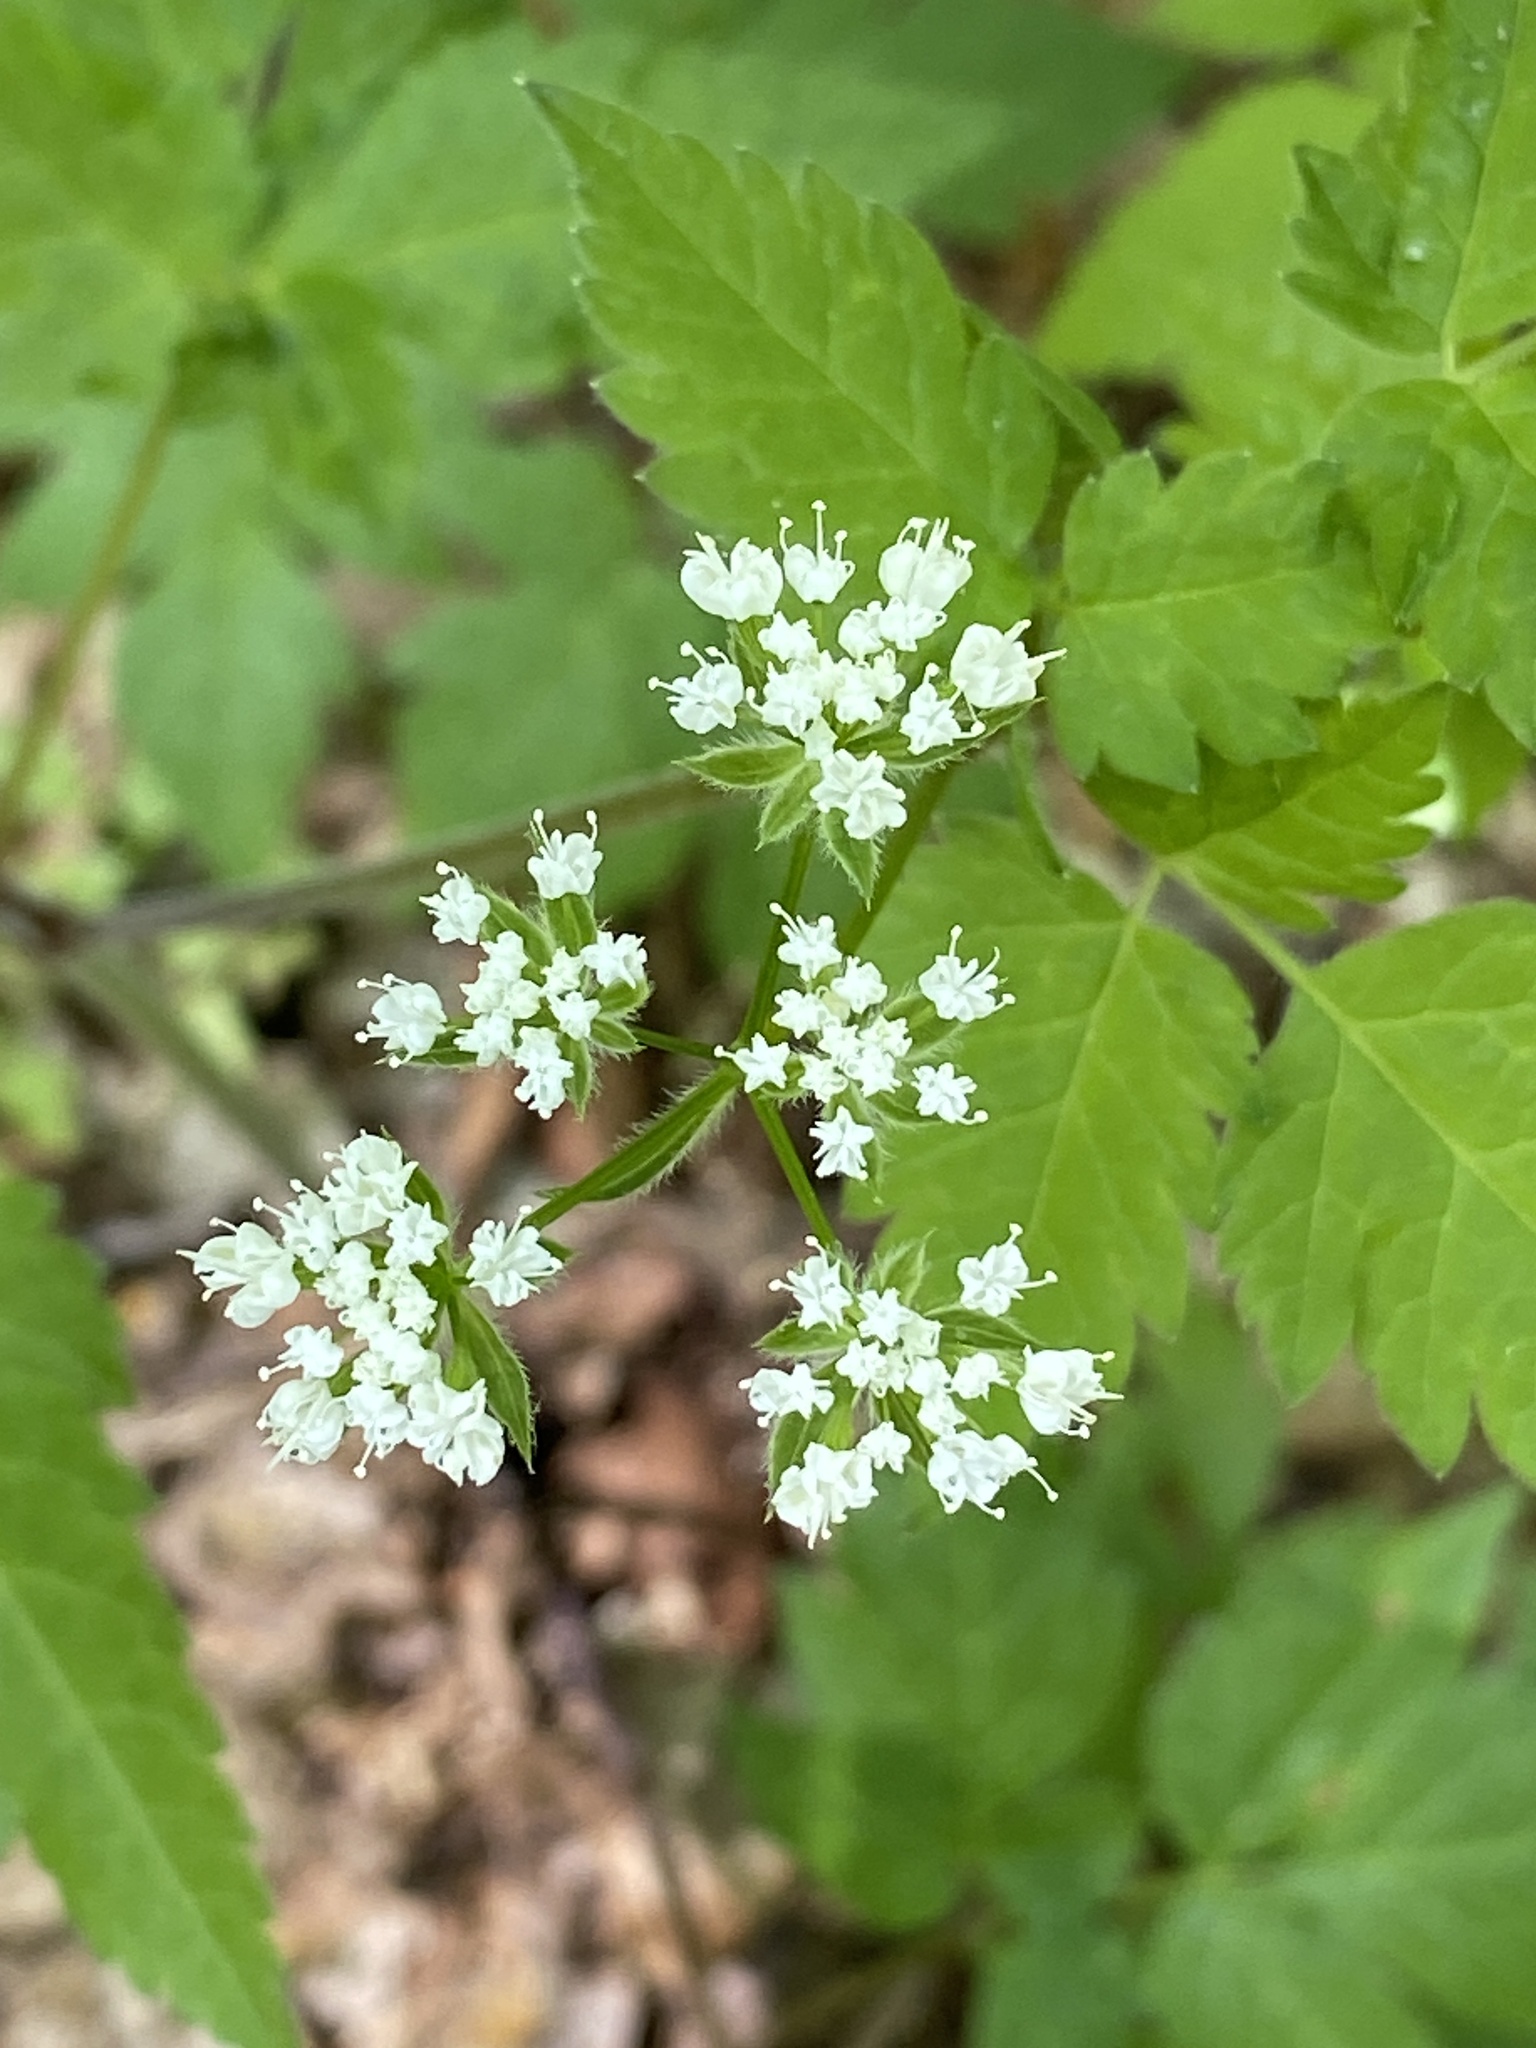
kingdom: Plantae
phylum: Tracheophyta
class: Magnoliopsida
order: Apiales
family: Apiaceae
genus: Osmorhiza
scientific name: Osmorhiza longistylis
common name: Smooth sweet cicely
